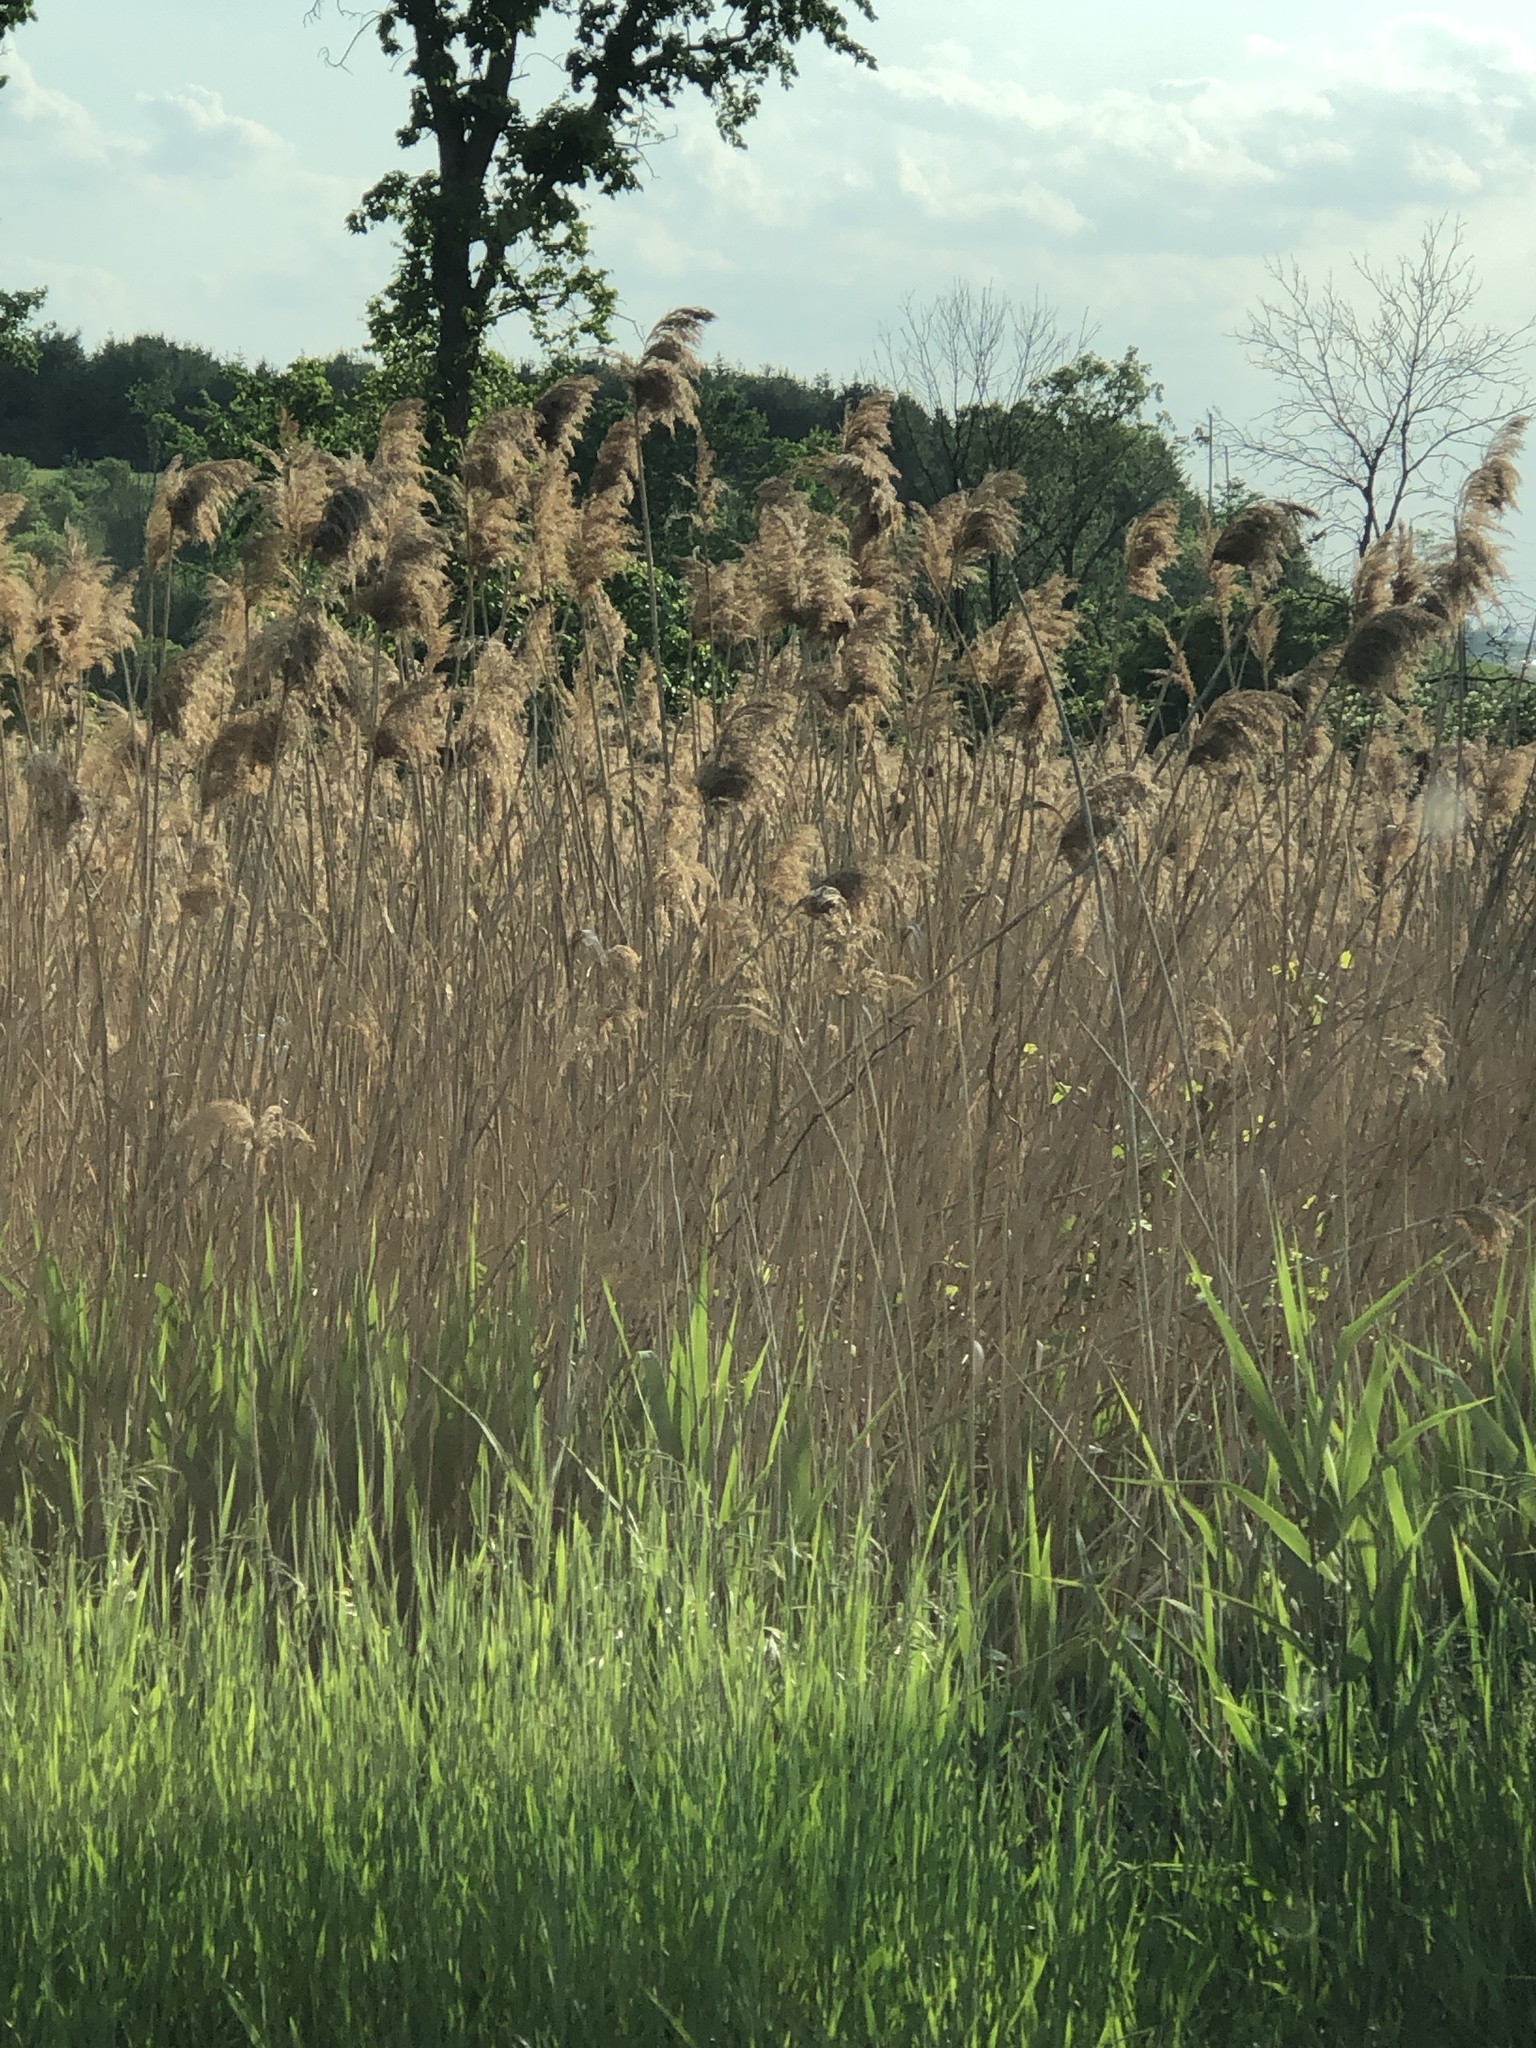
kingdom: Plantae
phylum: Tracheophyta
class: Liliopsida
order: Poales
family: Poaceae
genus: Phragmites
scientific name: Phragmites australis
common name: Common reed
